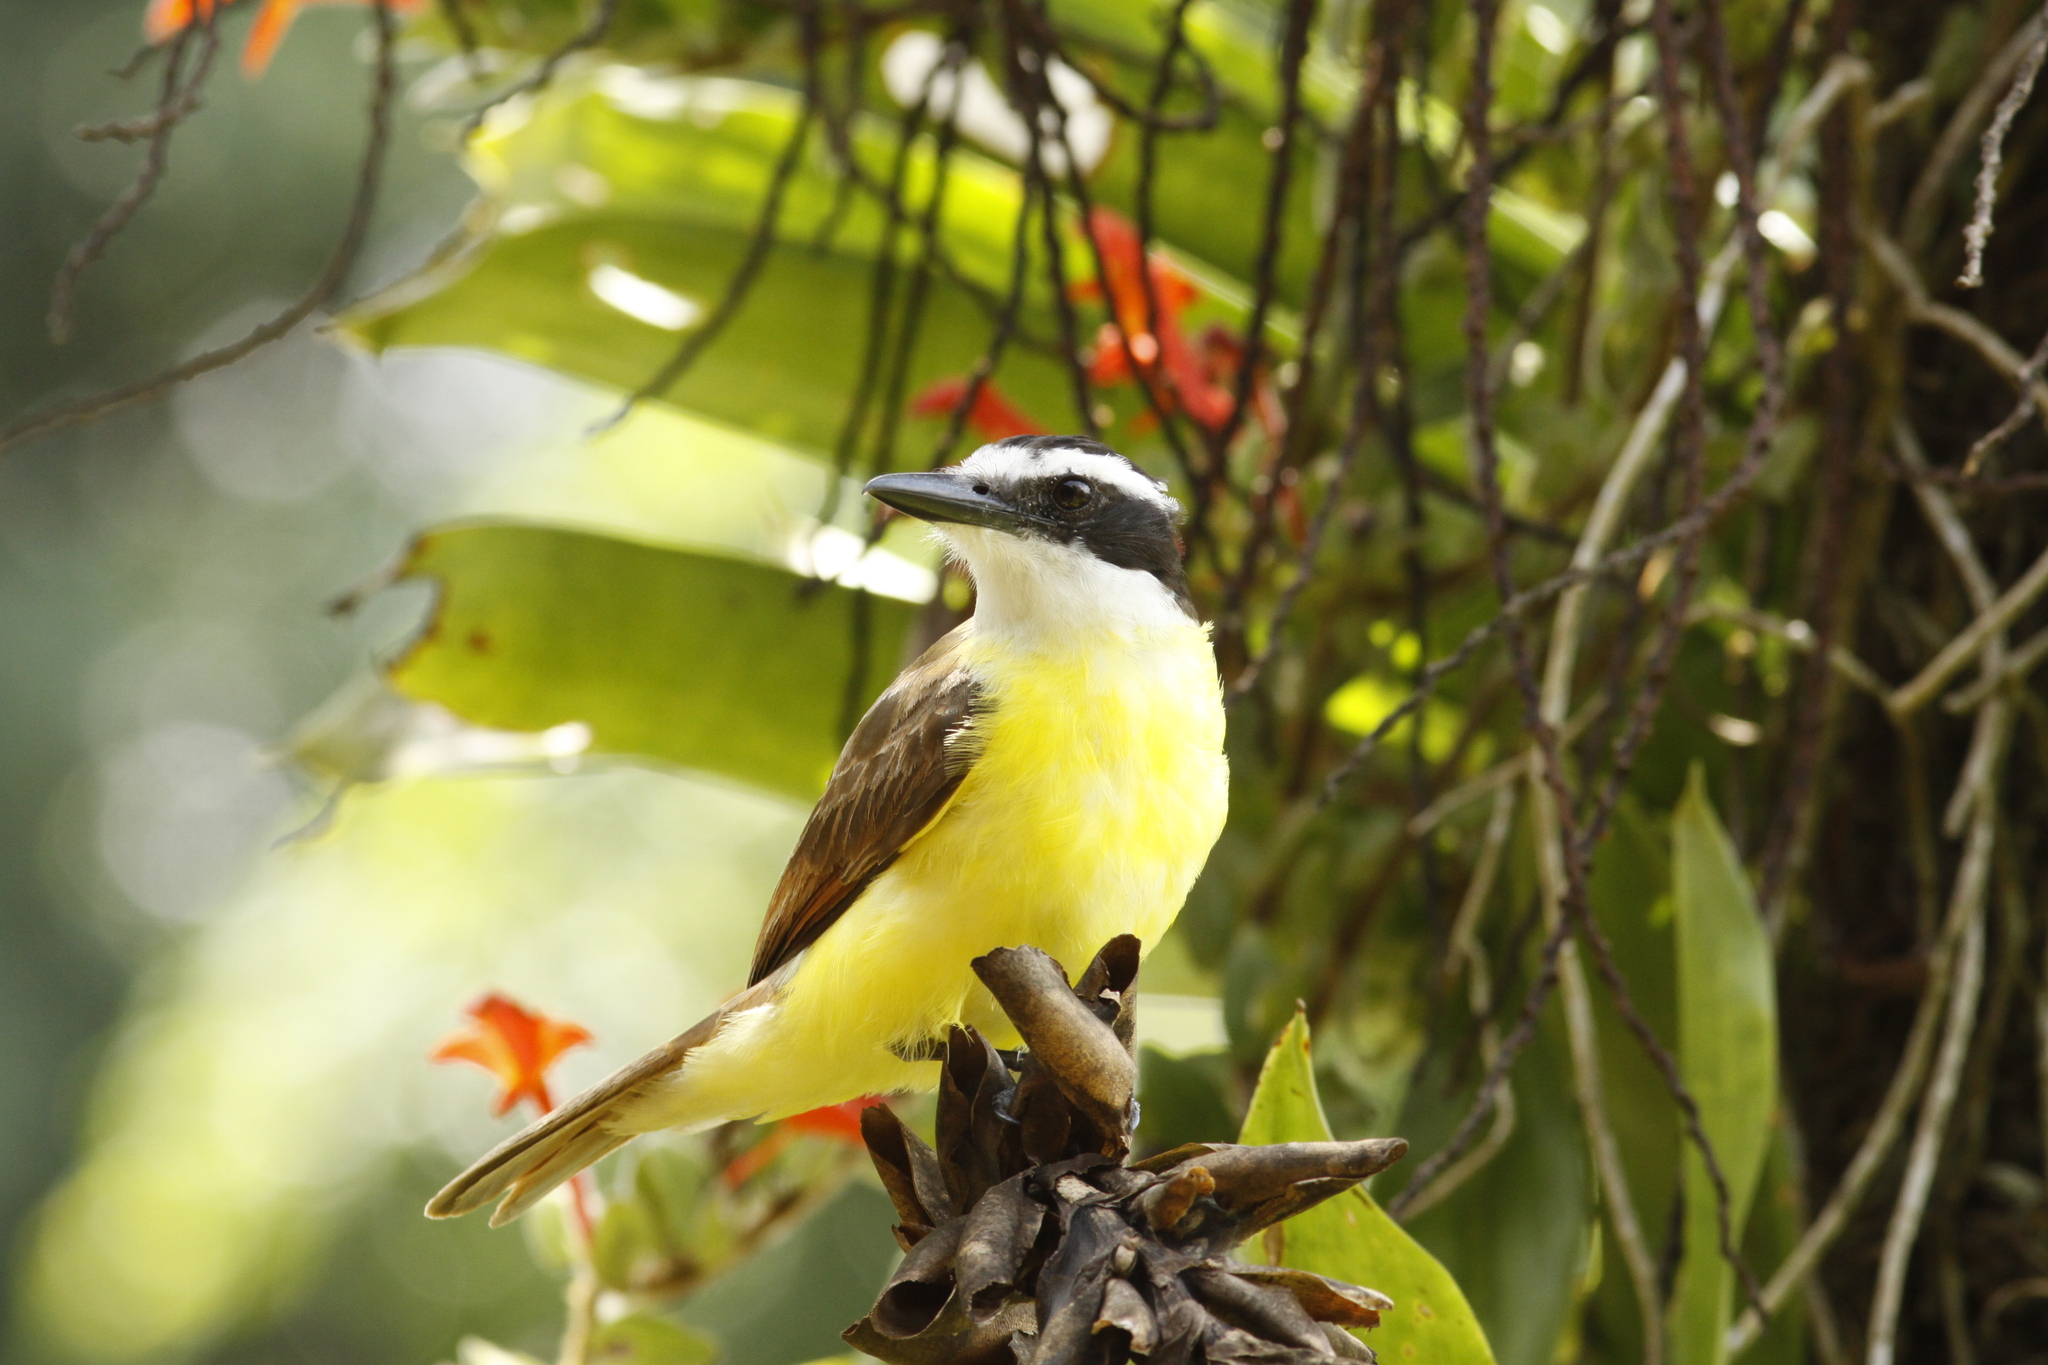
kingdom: Animalia
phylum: Chordata
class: Aves
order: Passeriformes
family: Tyrannidae
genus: Pitangus
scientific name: Pitangus sulphuratus
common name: Great kiskadee
